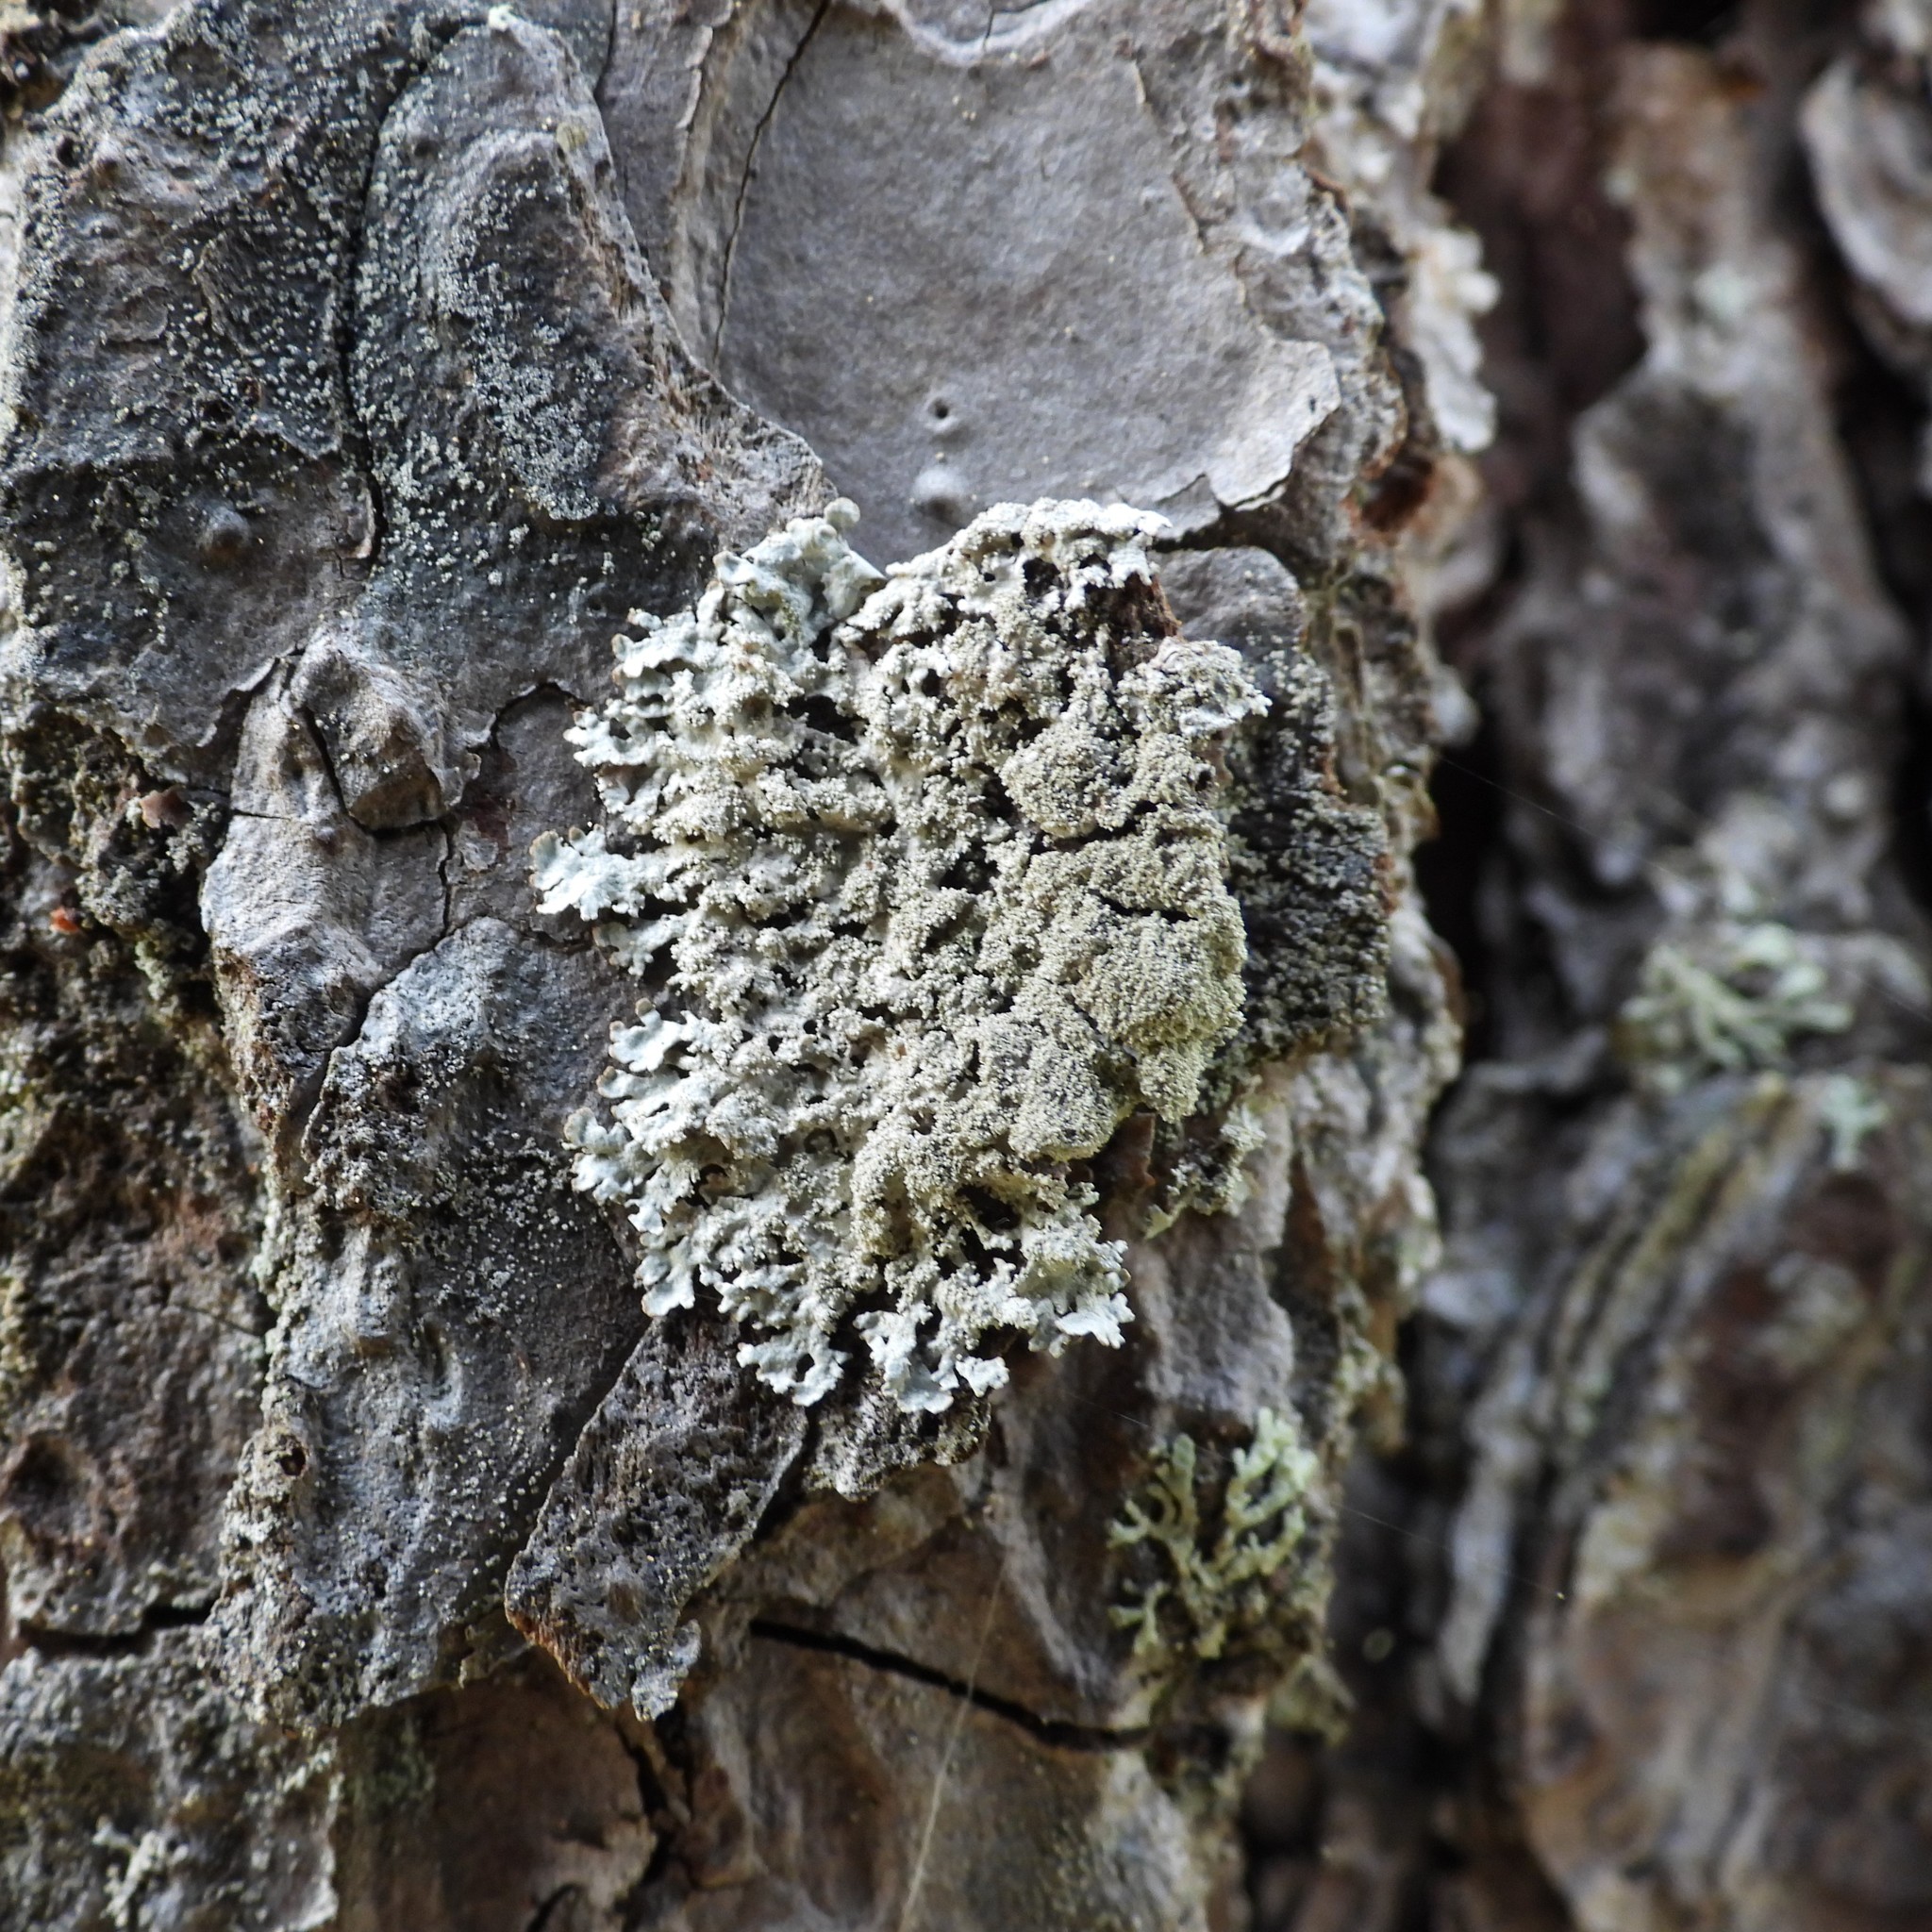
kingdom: Fungi
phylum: Ascomycota
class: Lecanoromycetes
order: Lecanorales
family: Parmeliaceae
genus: Imshaugia
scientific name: Imshaugia aleurites
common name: Salted starburst lichen
